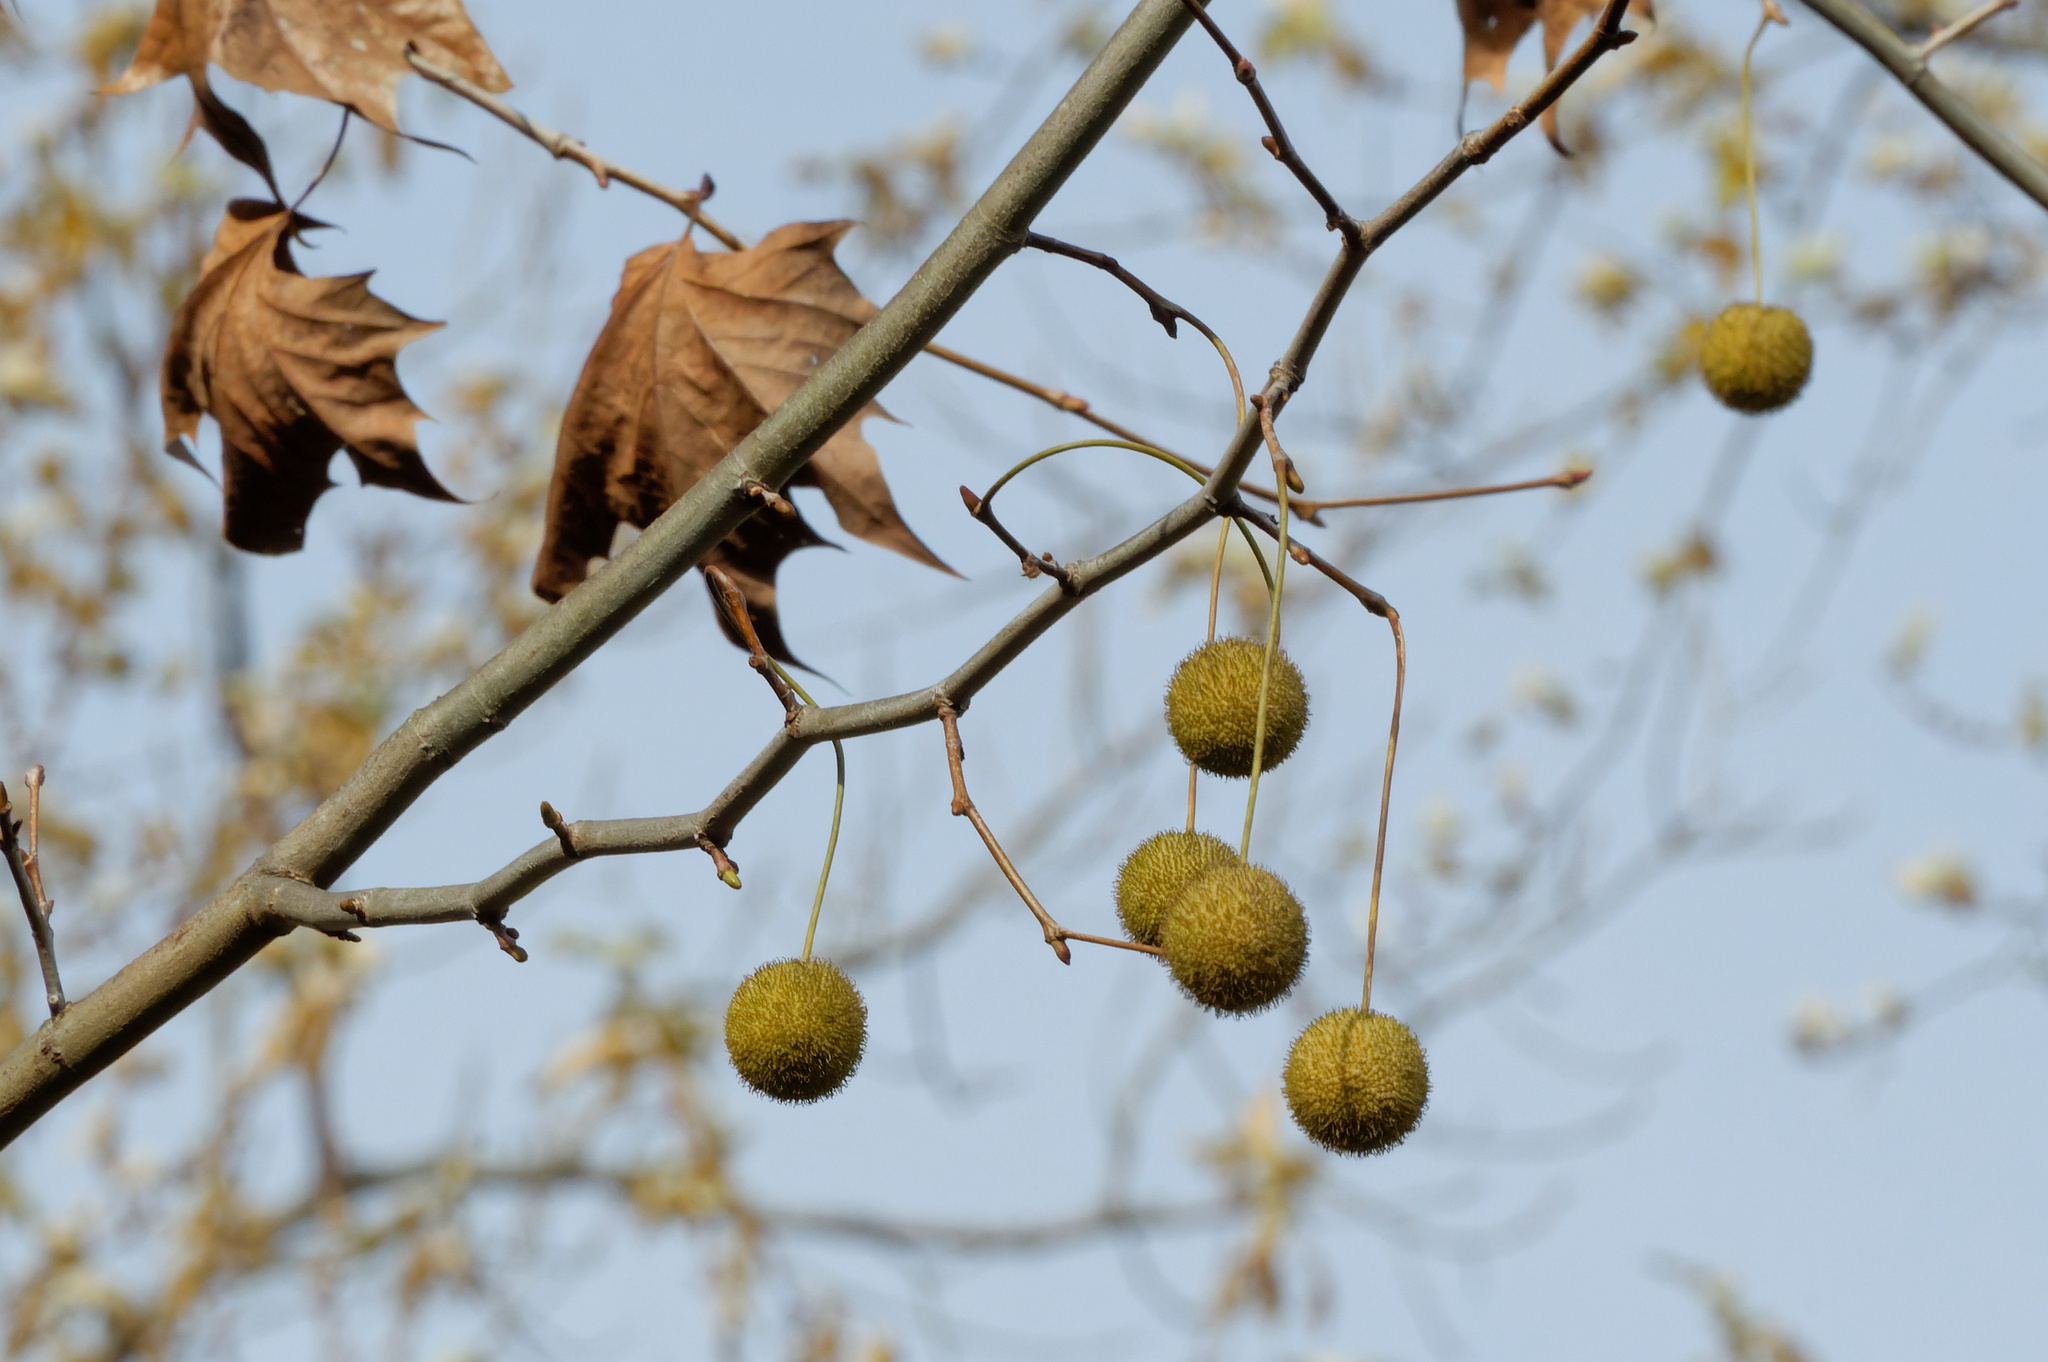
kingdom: Plantae
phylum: Tracheophyta
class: Magnoliopsida
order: Proteales
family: Platanaceae
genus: Platanus
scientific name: Platanus occidentalis
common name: American sycamore
